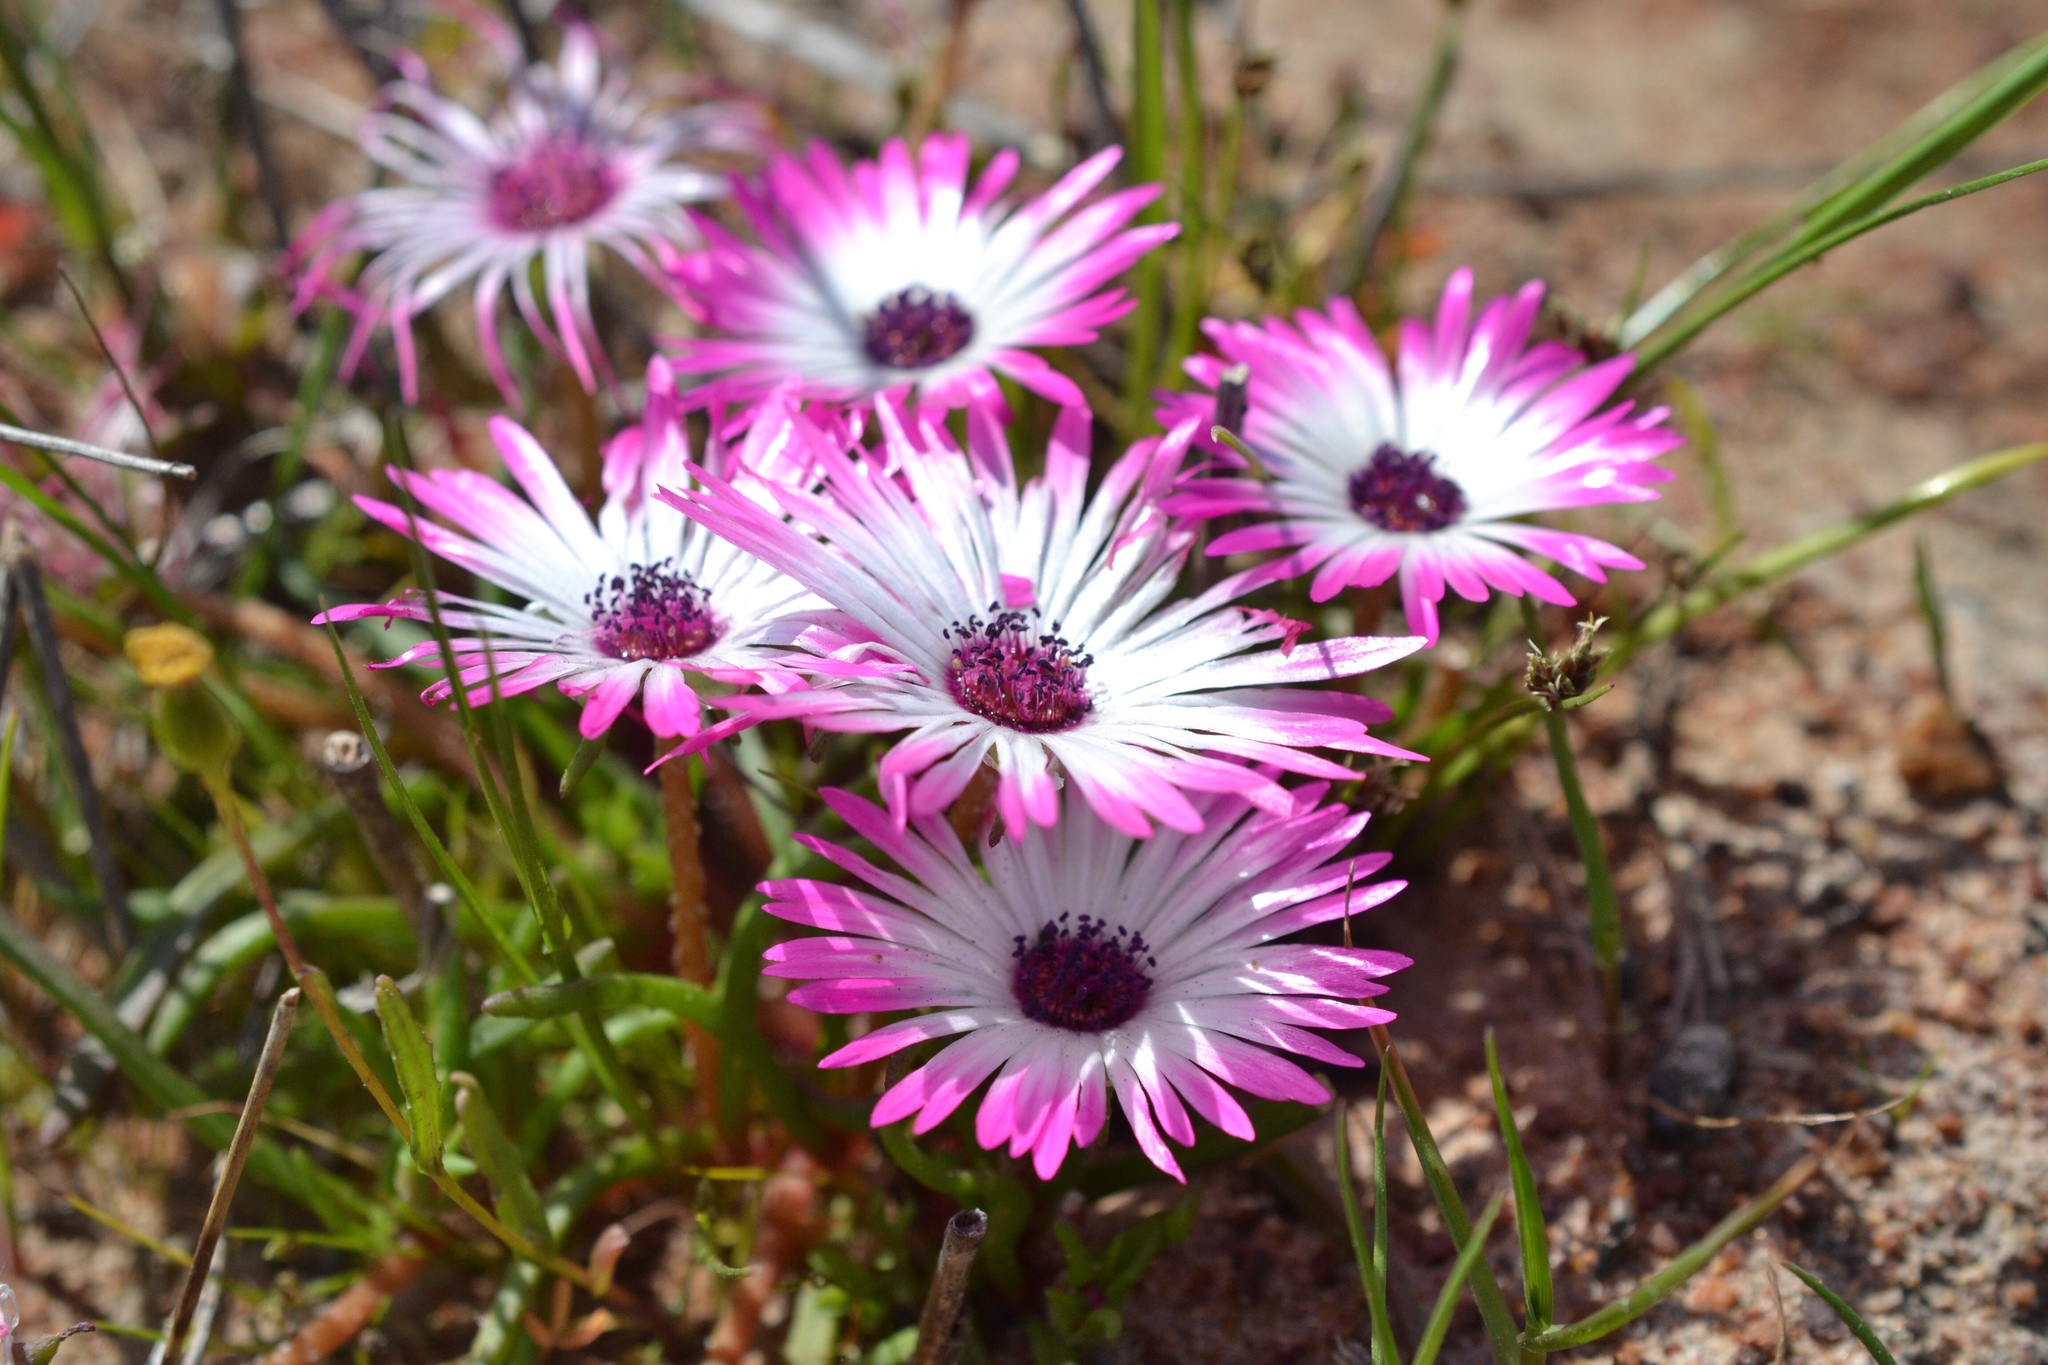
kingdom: Plantae
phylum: Tracheophyta
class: Magnoliopsida
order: Caryophyllales
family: Aizoaceae
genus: Cleretum
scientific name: Cleretum bellidiforme
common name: Livingstone daisy
